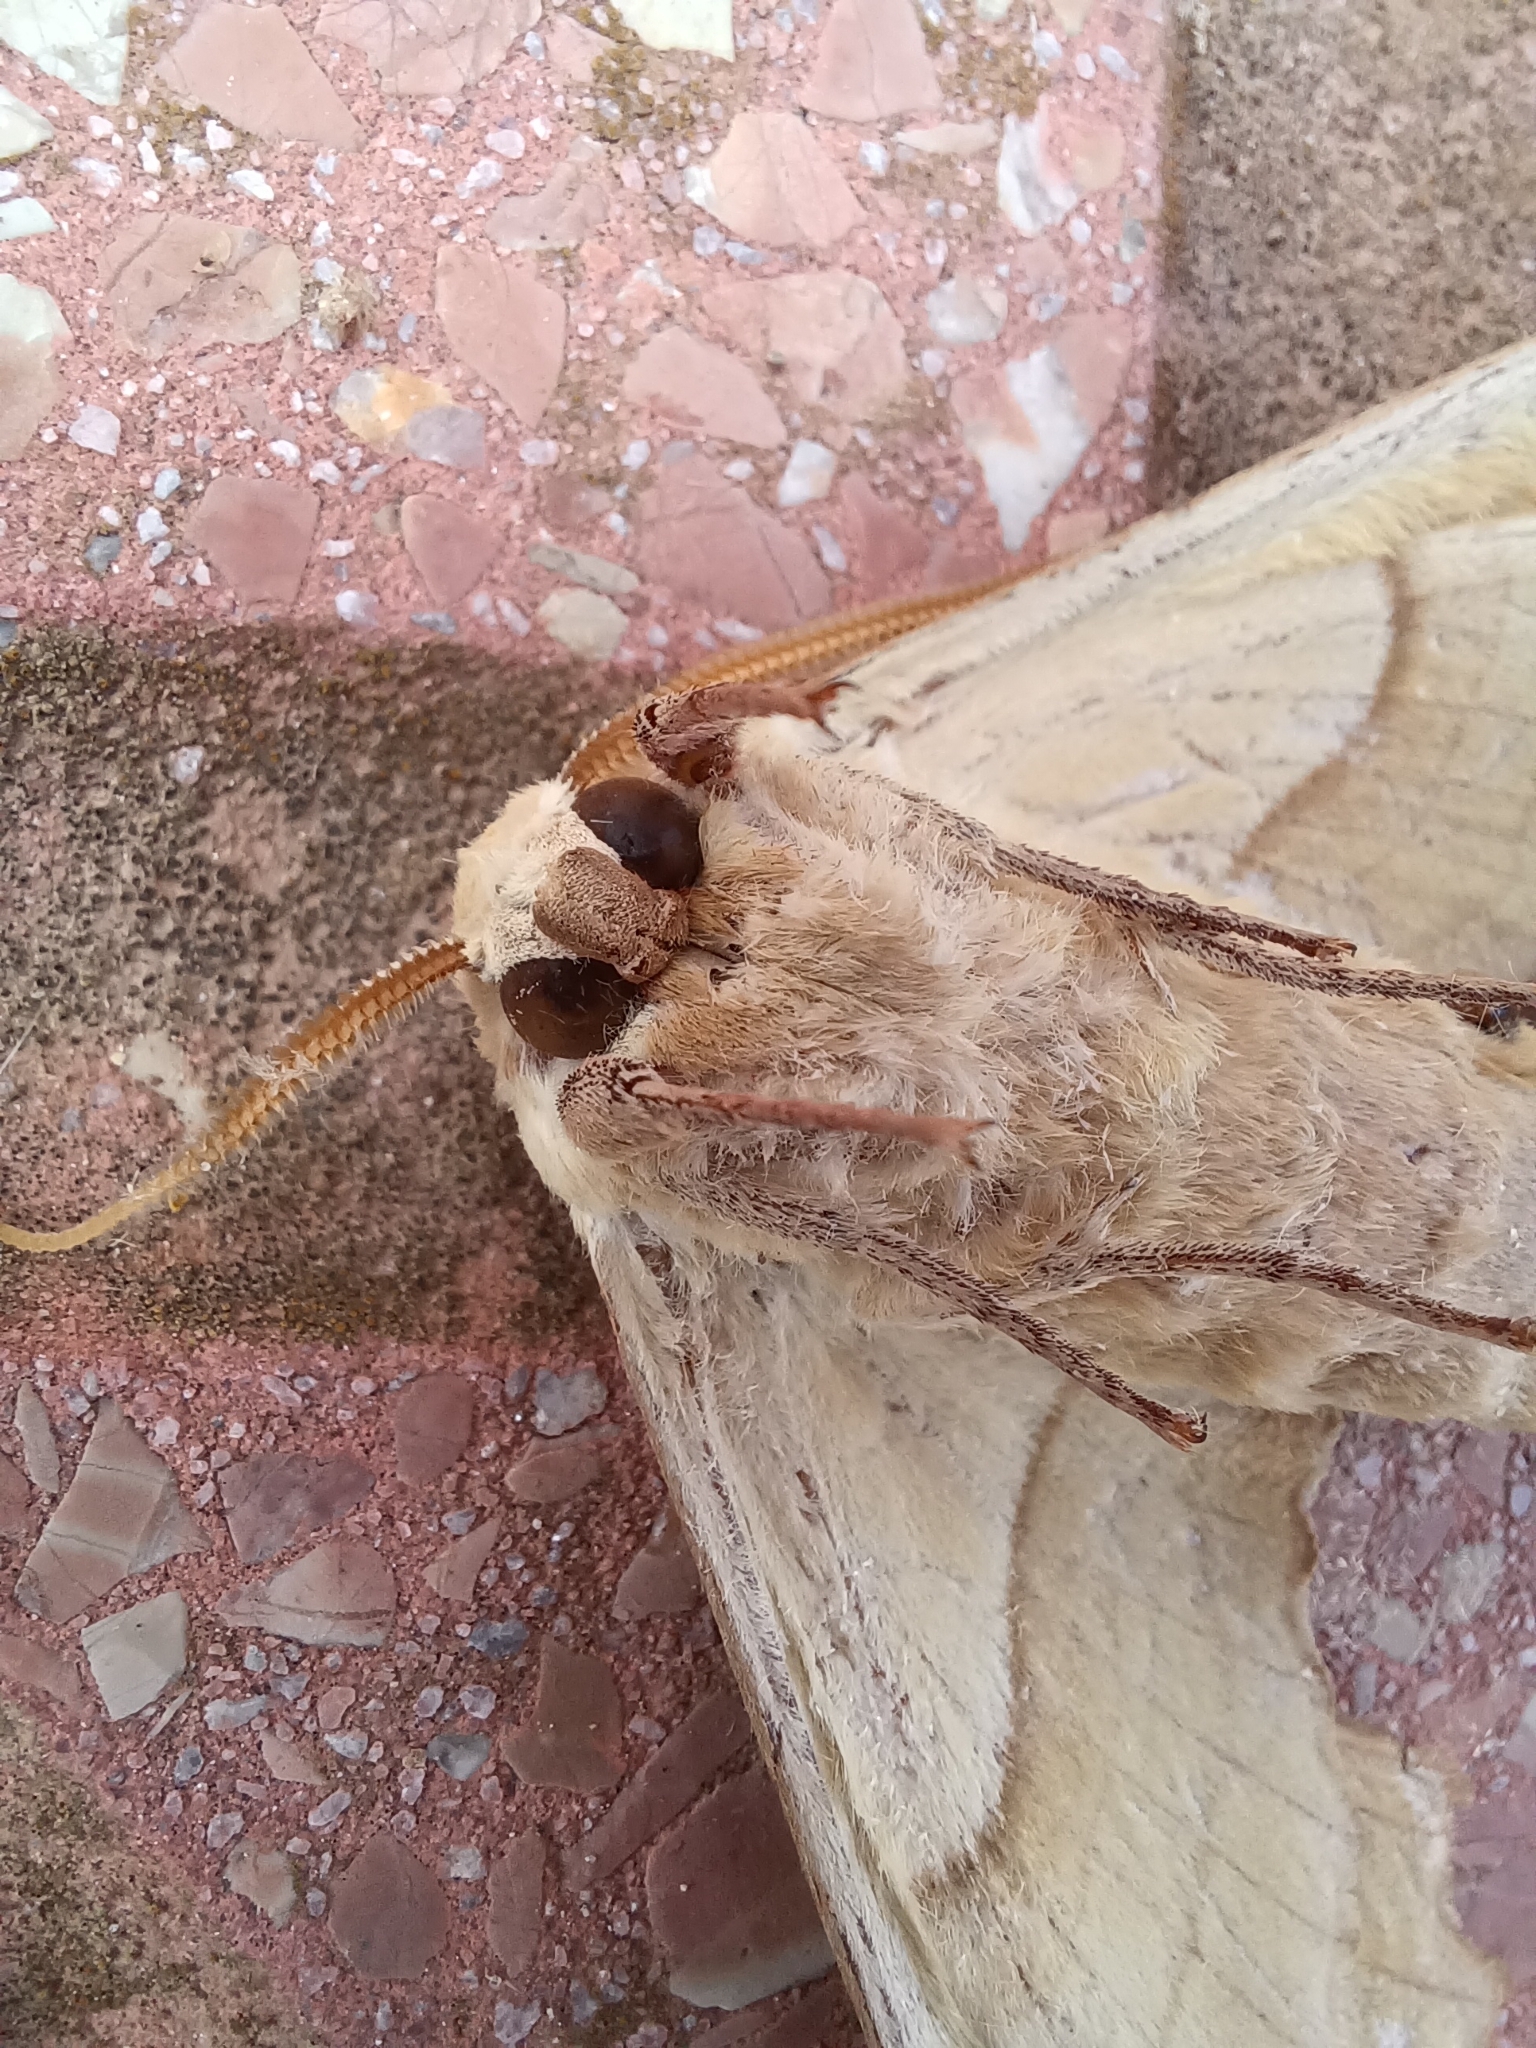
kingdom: Animalia
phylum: Arthropoda
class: Insecta
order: Lepidoptera
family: Sphingidae
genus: Marumba
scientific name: Marumba quercus
